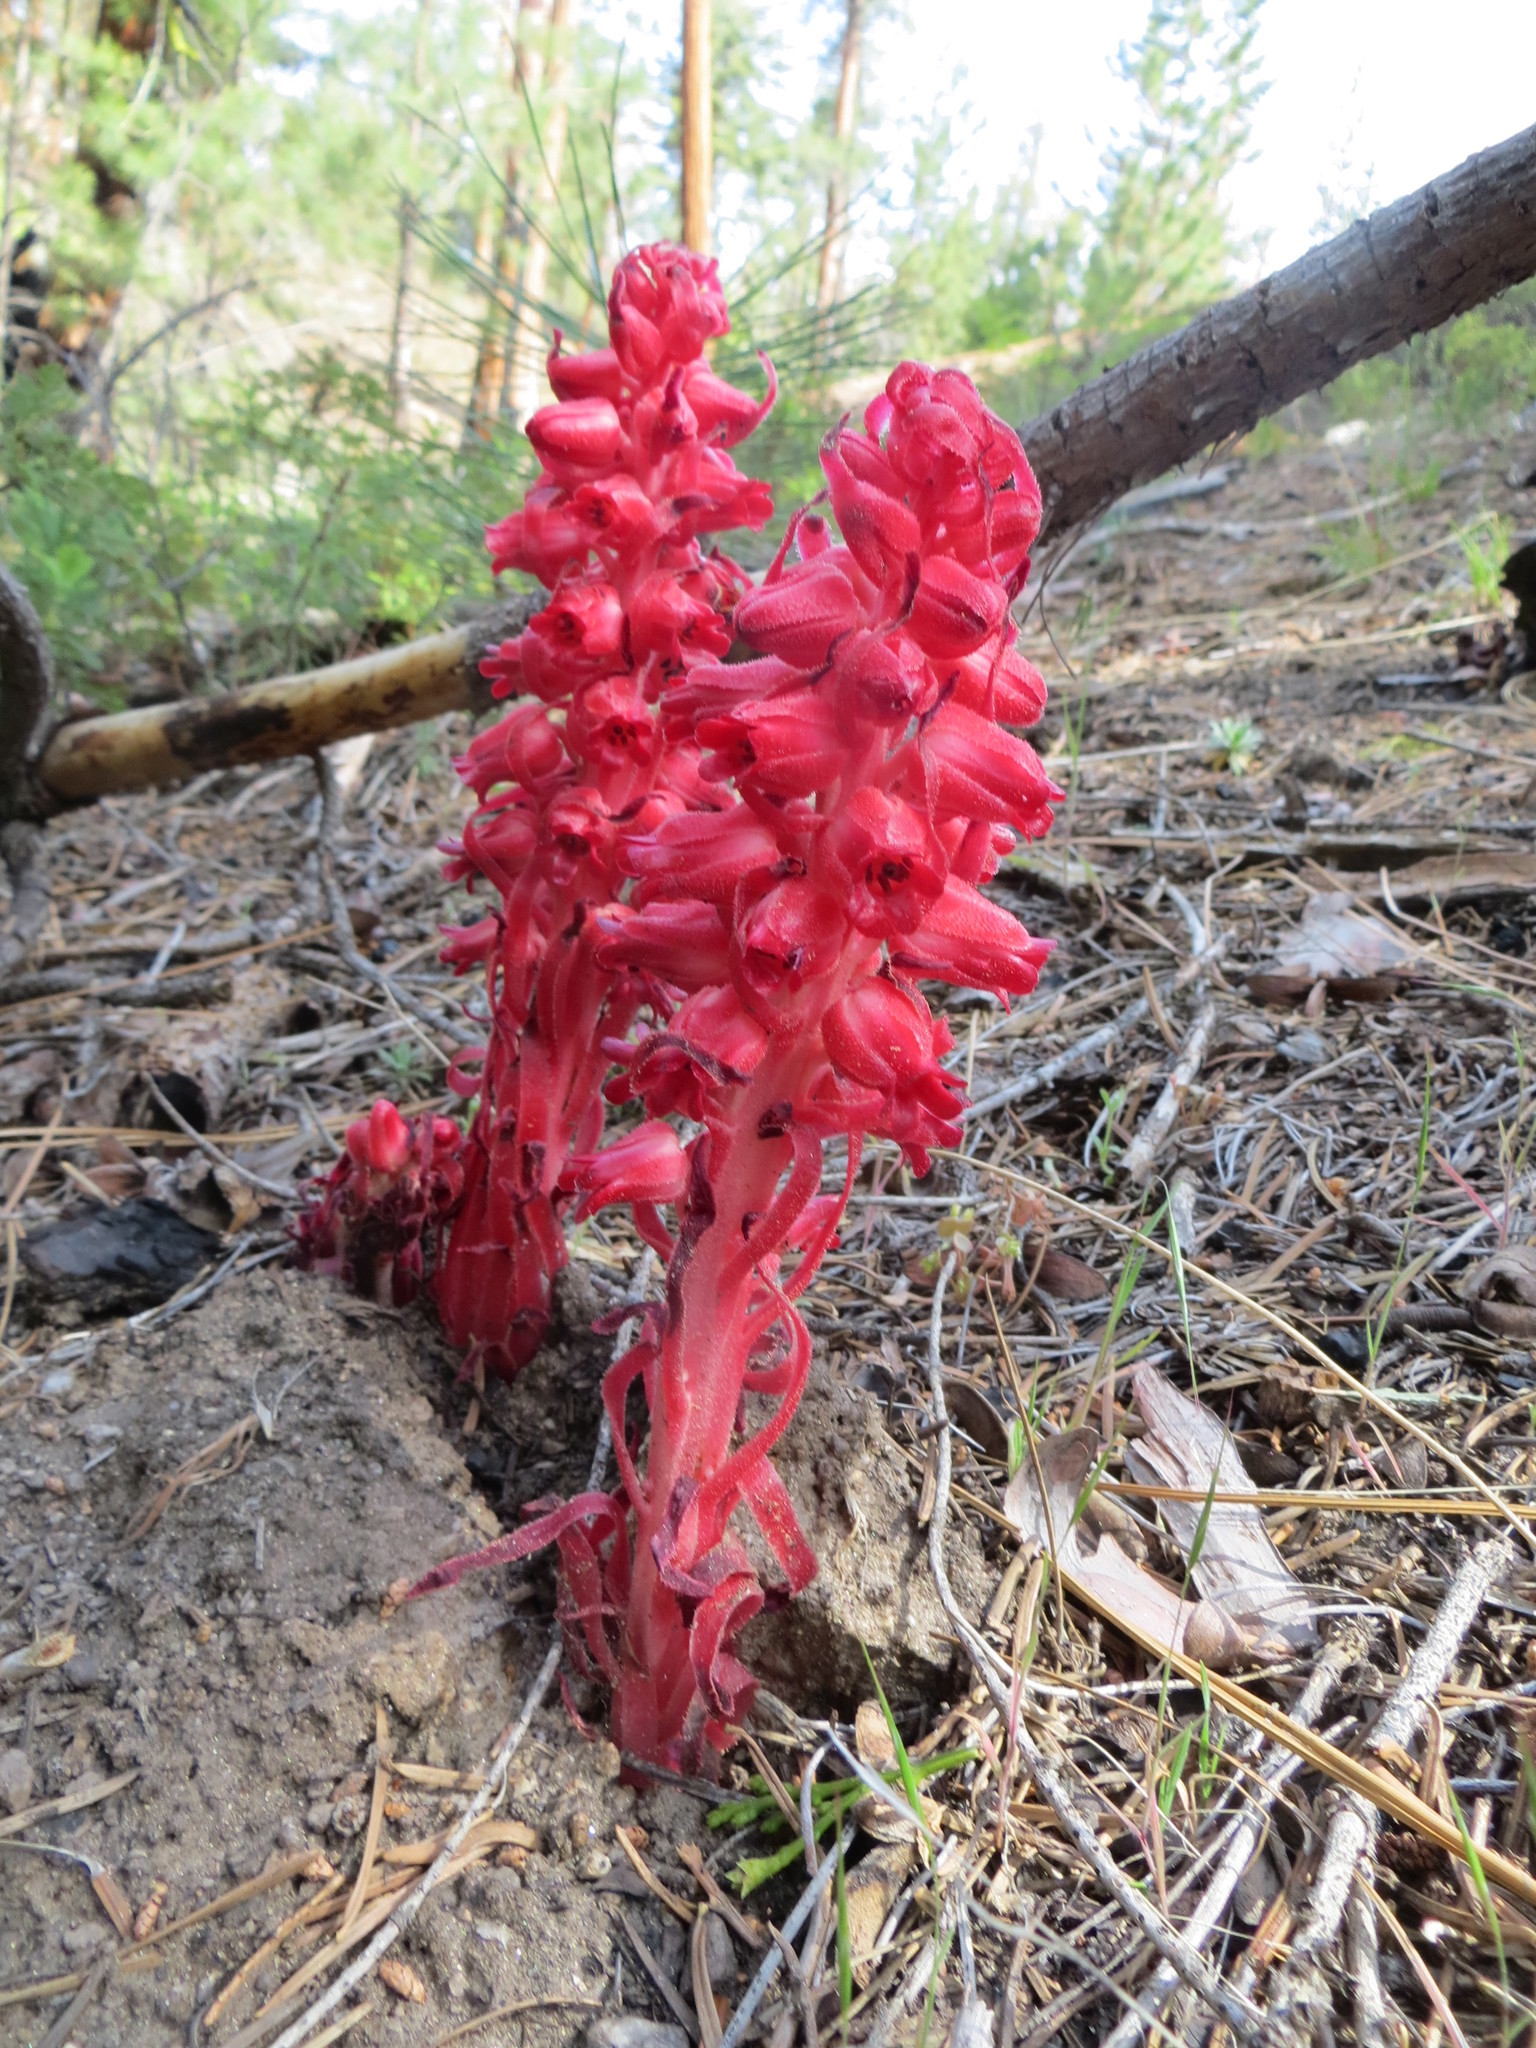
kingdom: Plantae
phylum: Tracheophyta
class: Magnoliopsida
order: Ericales
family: Ericaceae
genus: Sarcodes
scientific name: Sarcodes sanguinea
